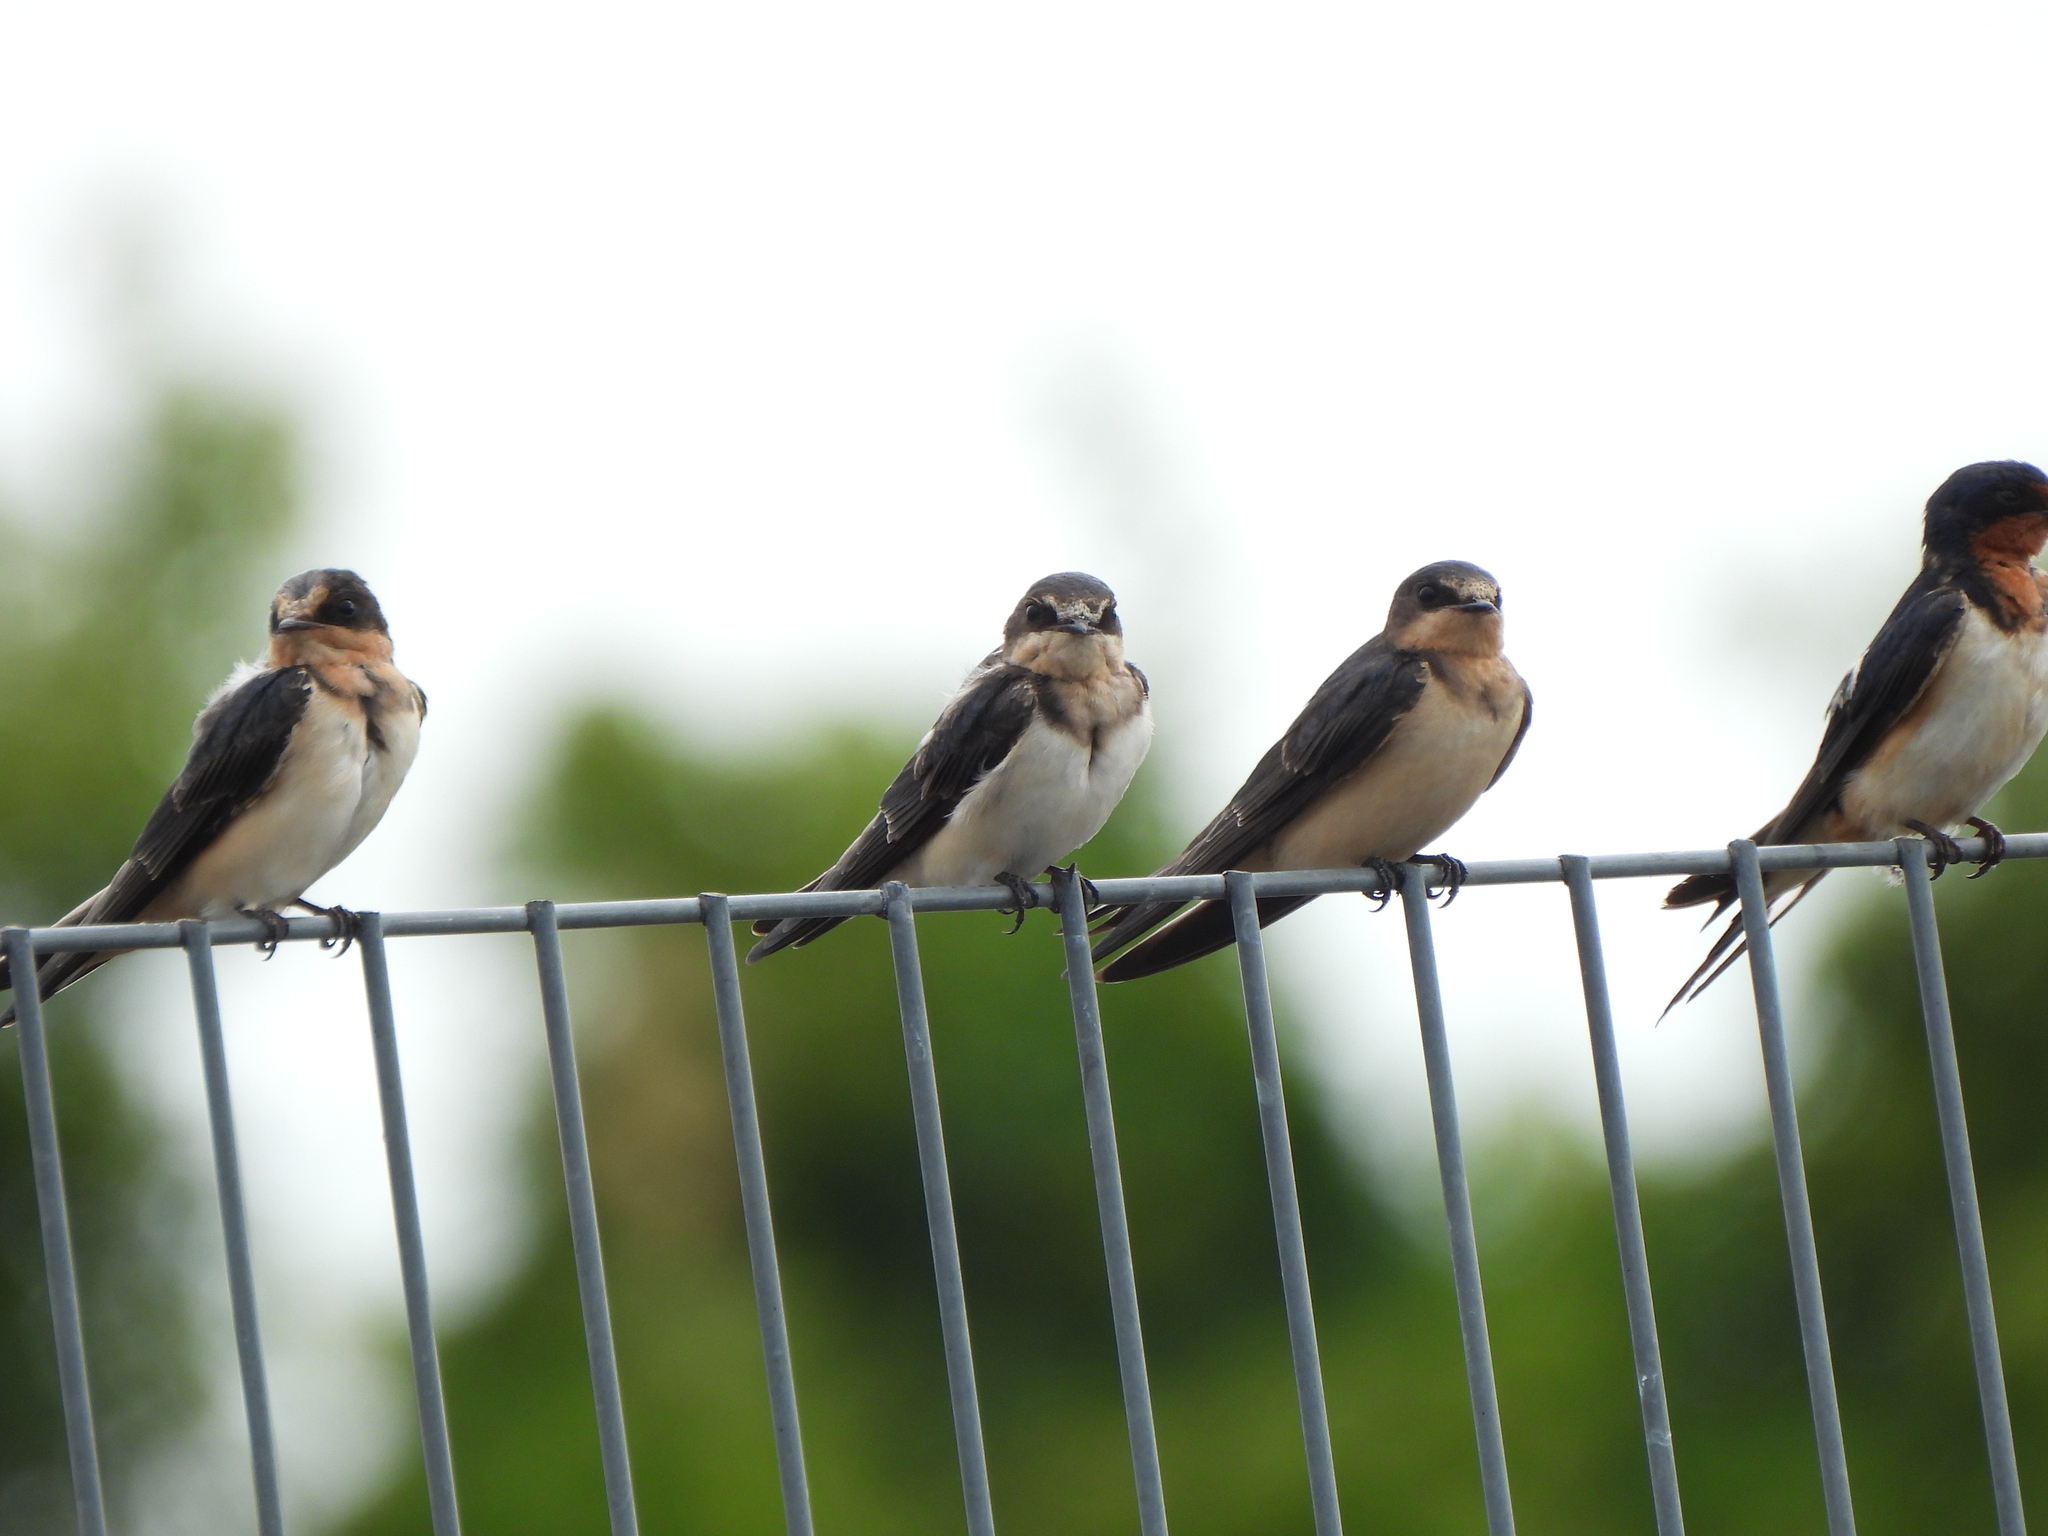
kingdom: Animalia
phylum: Chordata
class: Aves
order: Passeriformes
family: Hirundinidae
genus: Hirundo
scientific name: Hirundo rustica
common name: Barn swallow
